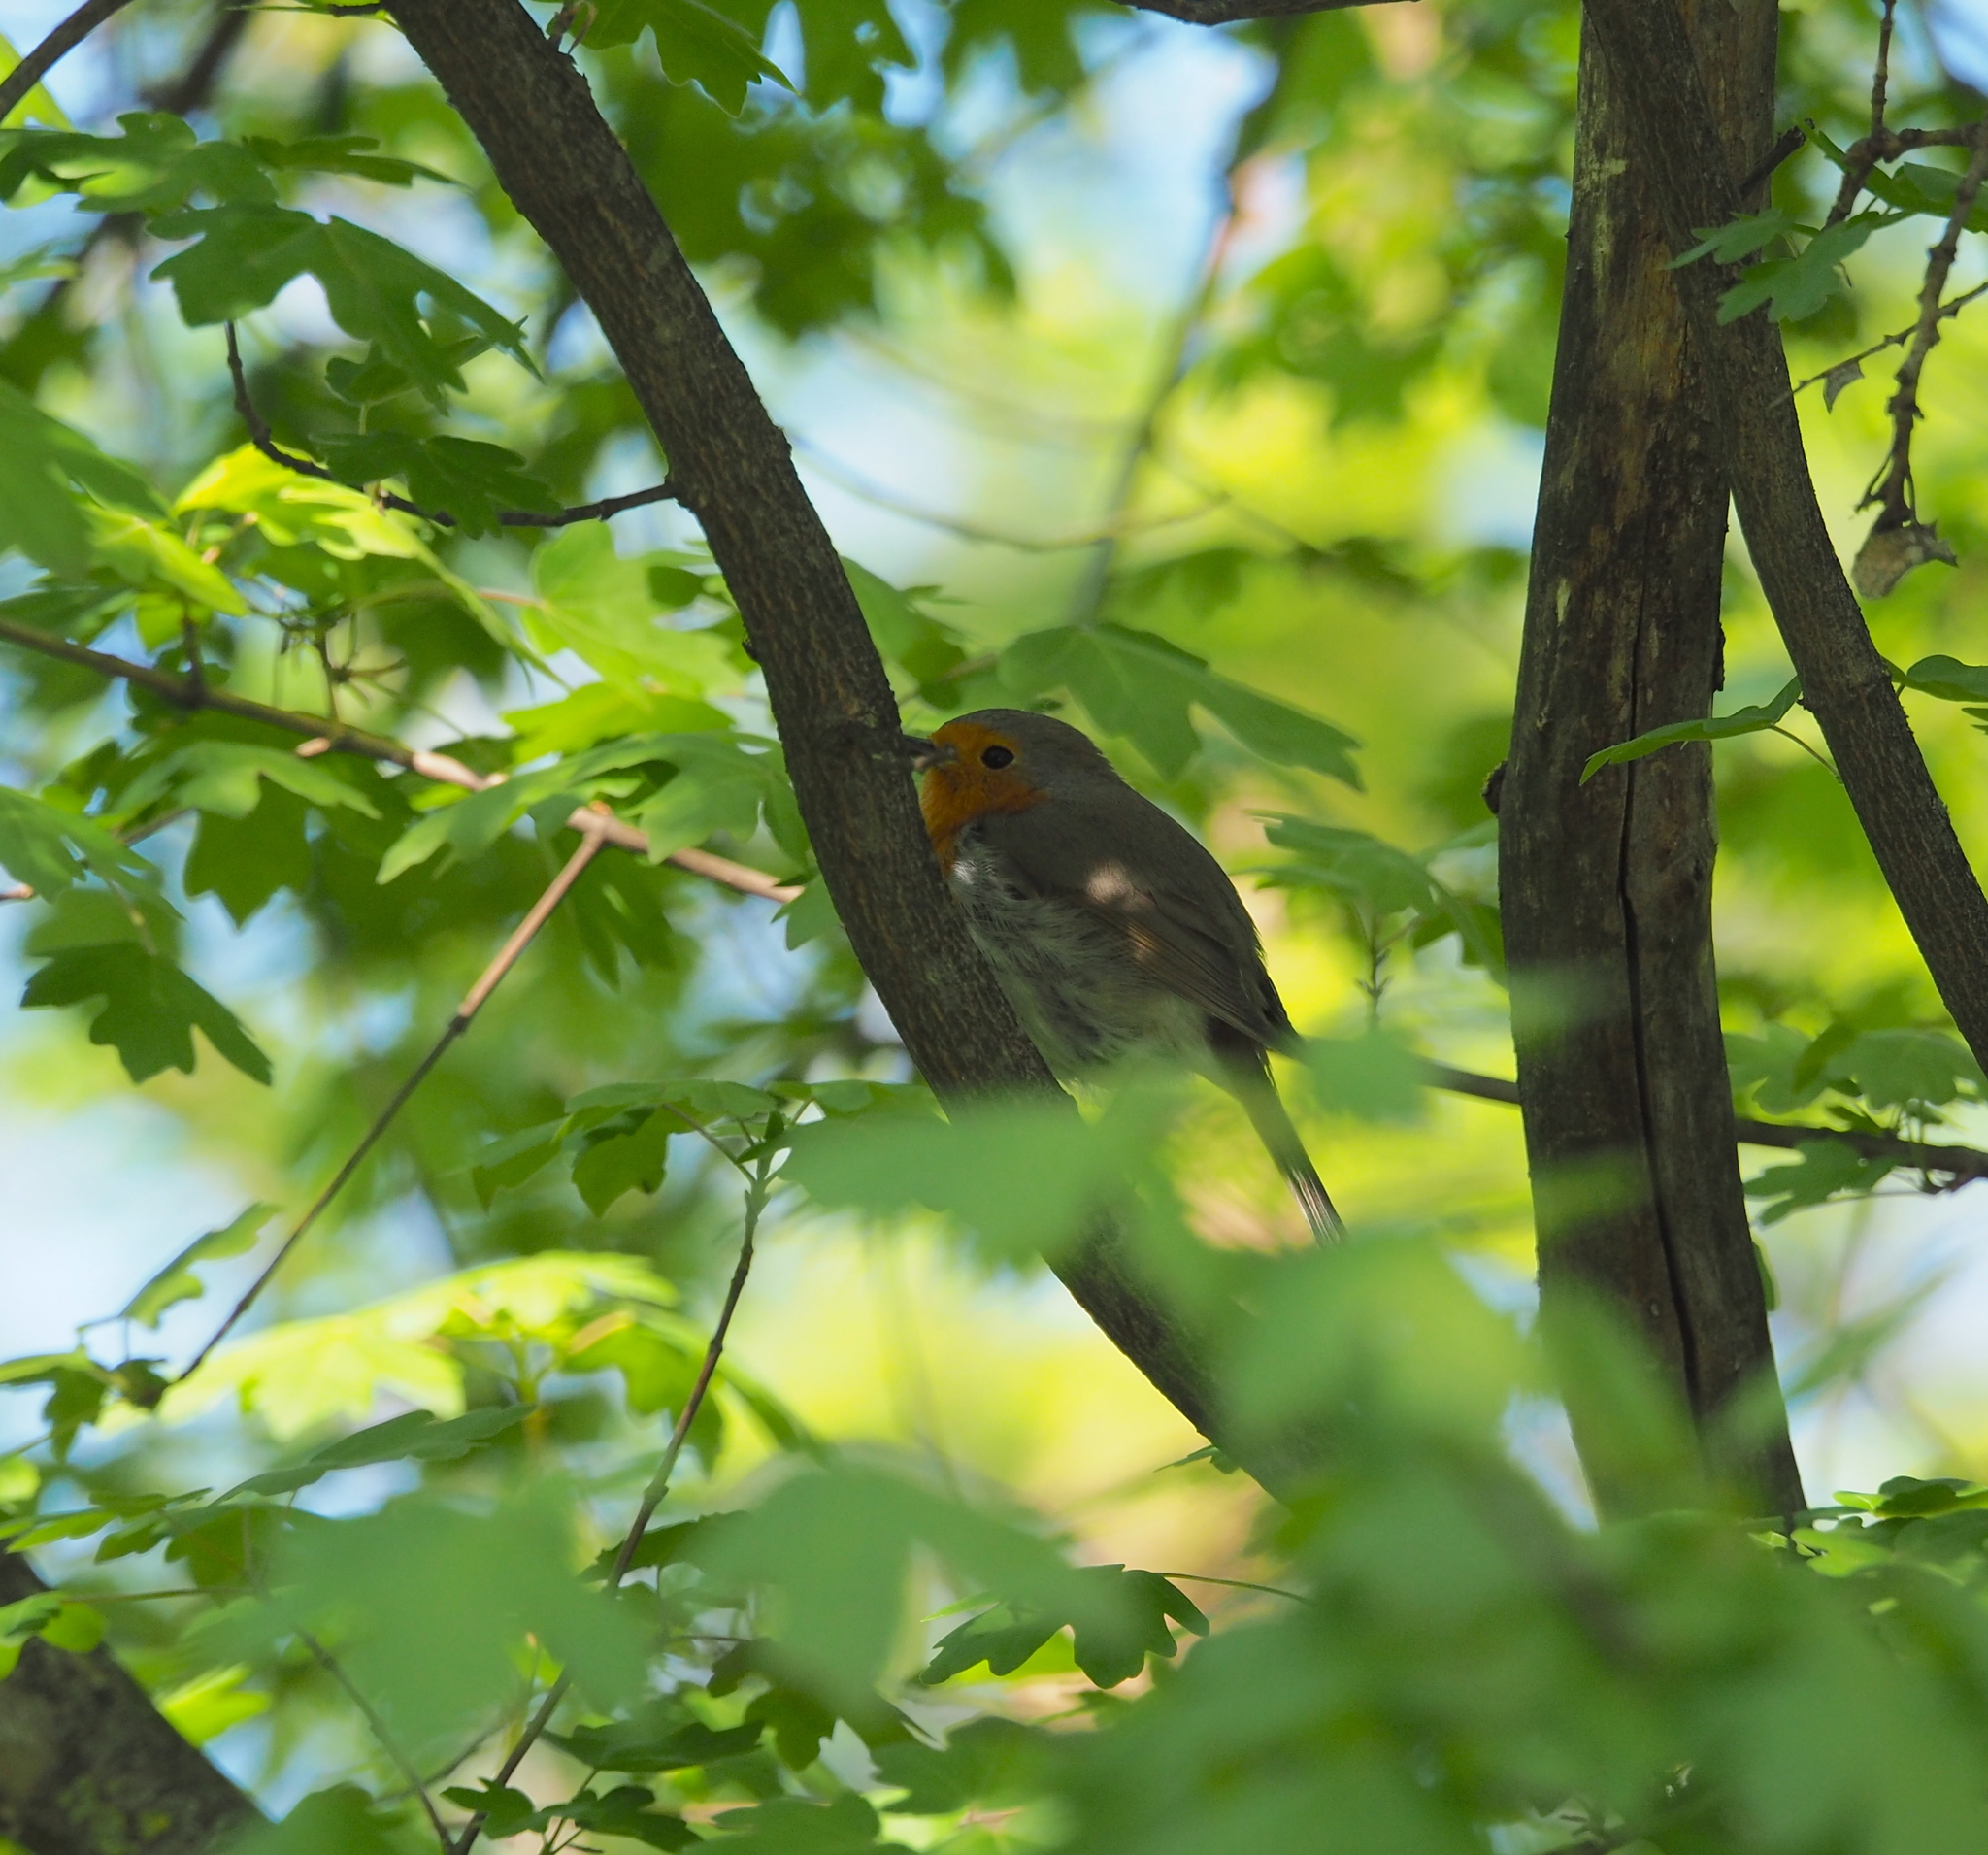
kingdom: Animalia
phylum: Chordata
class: Aves
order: Passeriformes
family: Muscicapidae
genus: Erithacus
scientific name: Erithacus rubecula
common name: European robin
